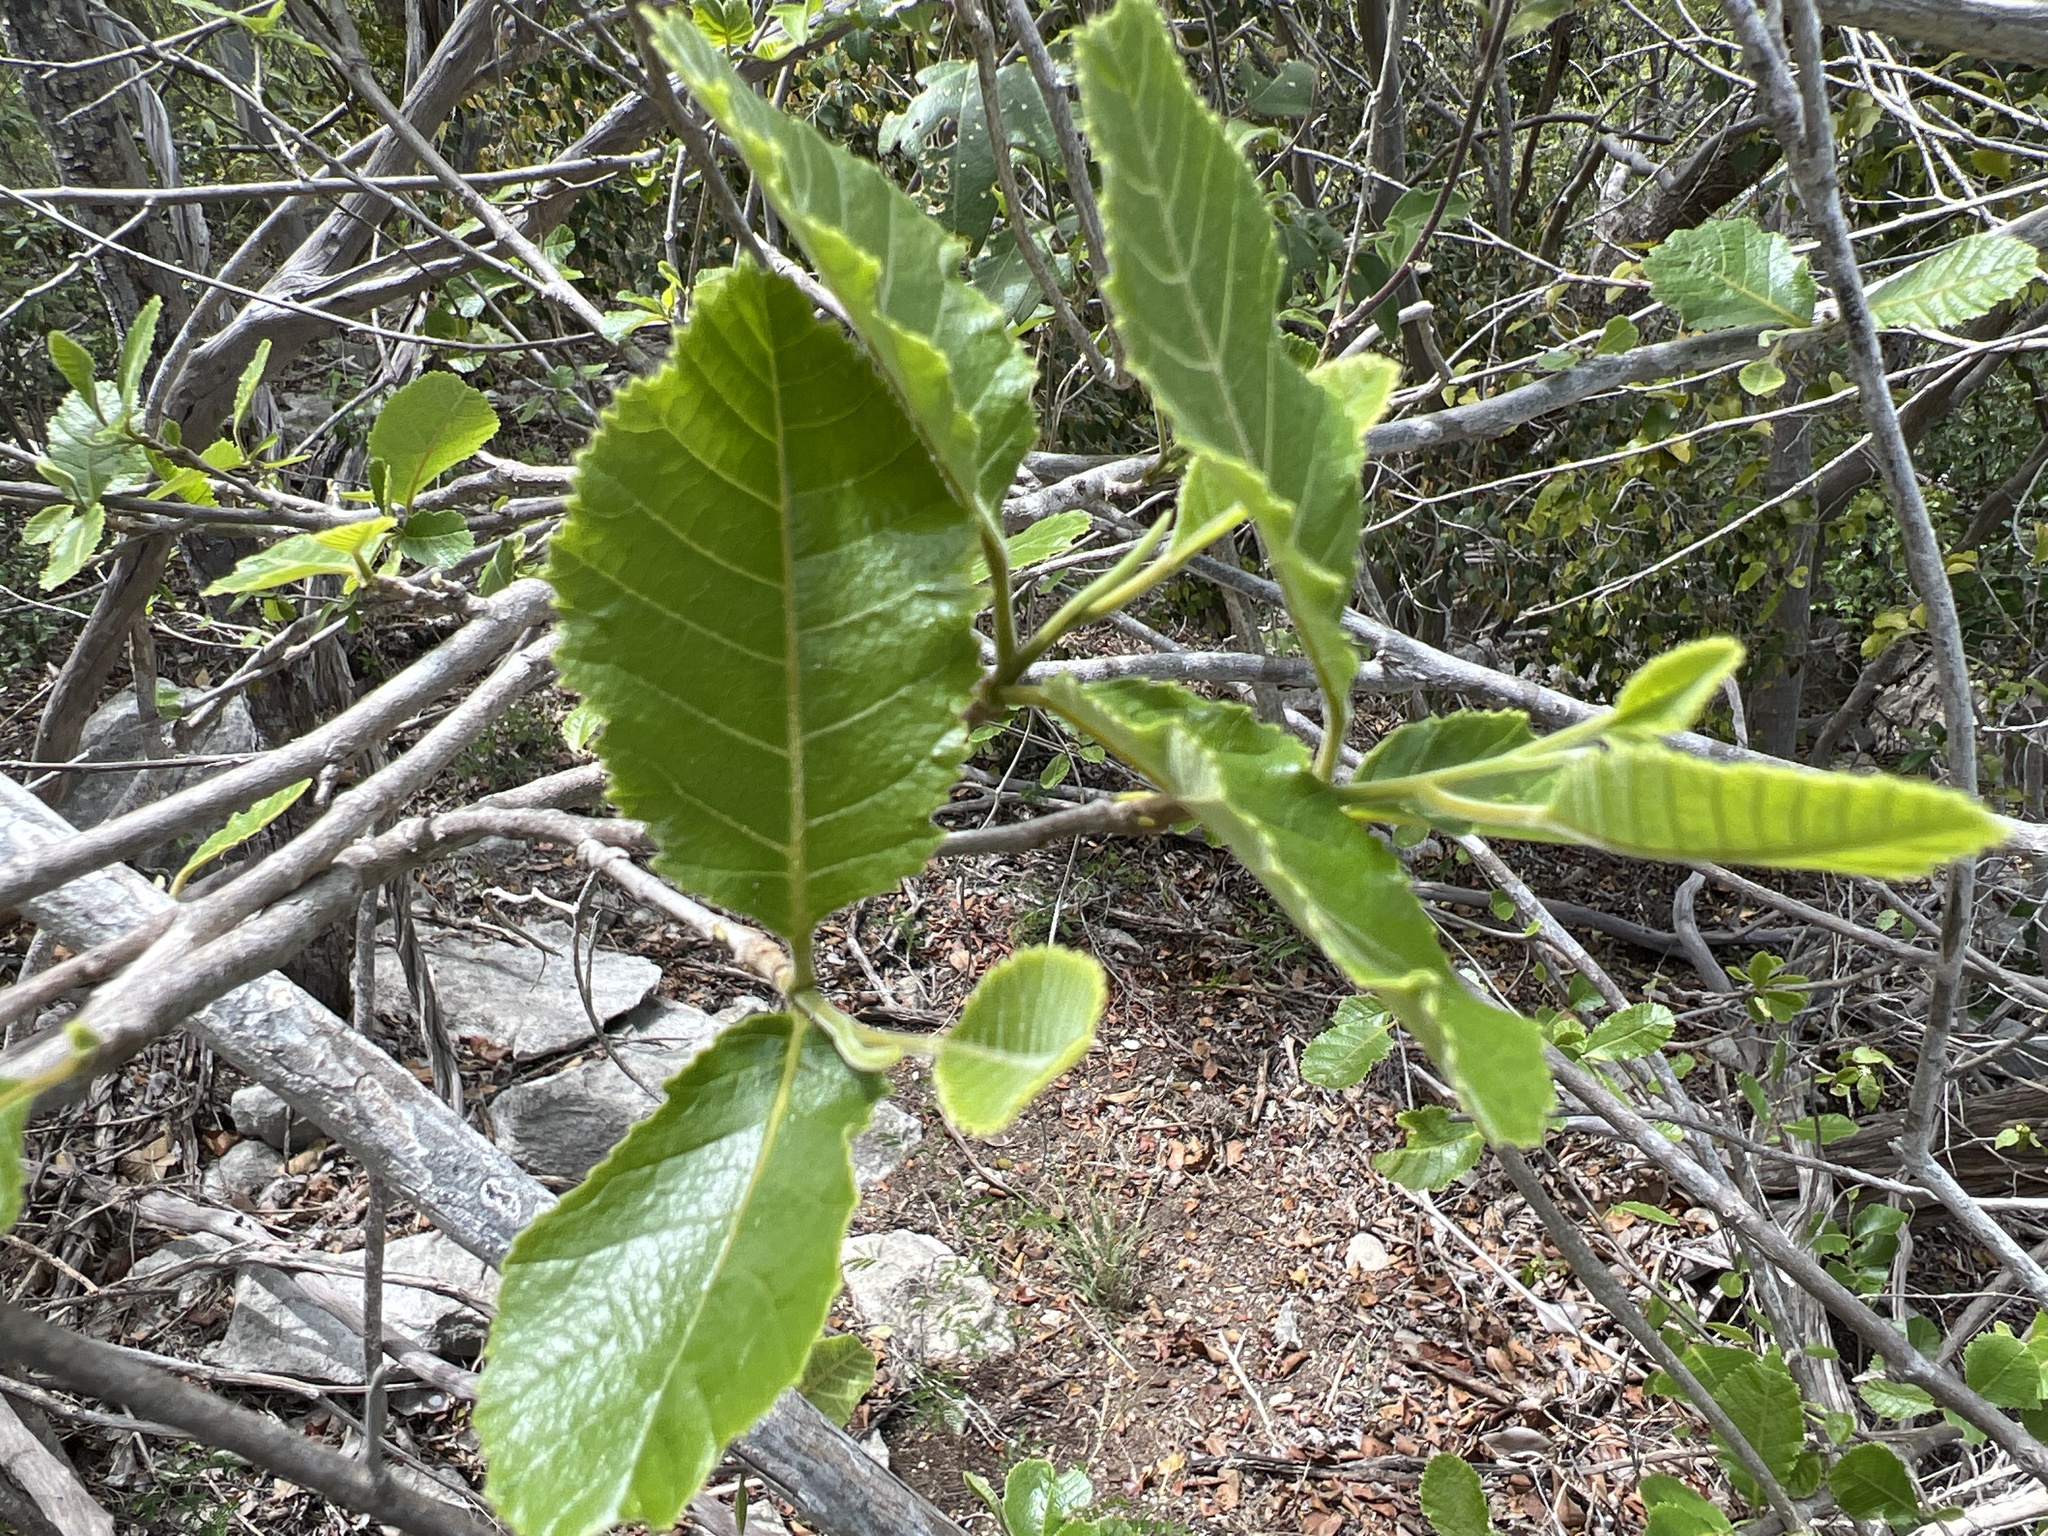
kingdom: Plantae
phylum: Tracheophyta
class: Magnoliopsida
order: Sapindales
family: Sapindaceae
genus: Thouinia
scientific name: Thouinia striata
